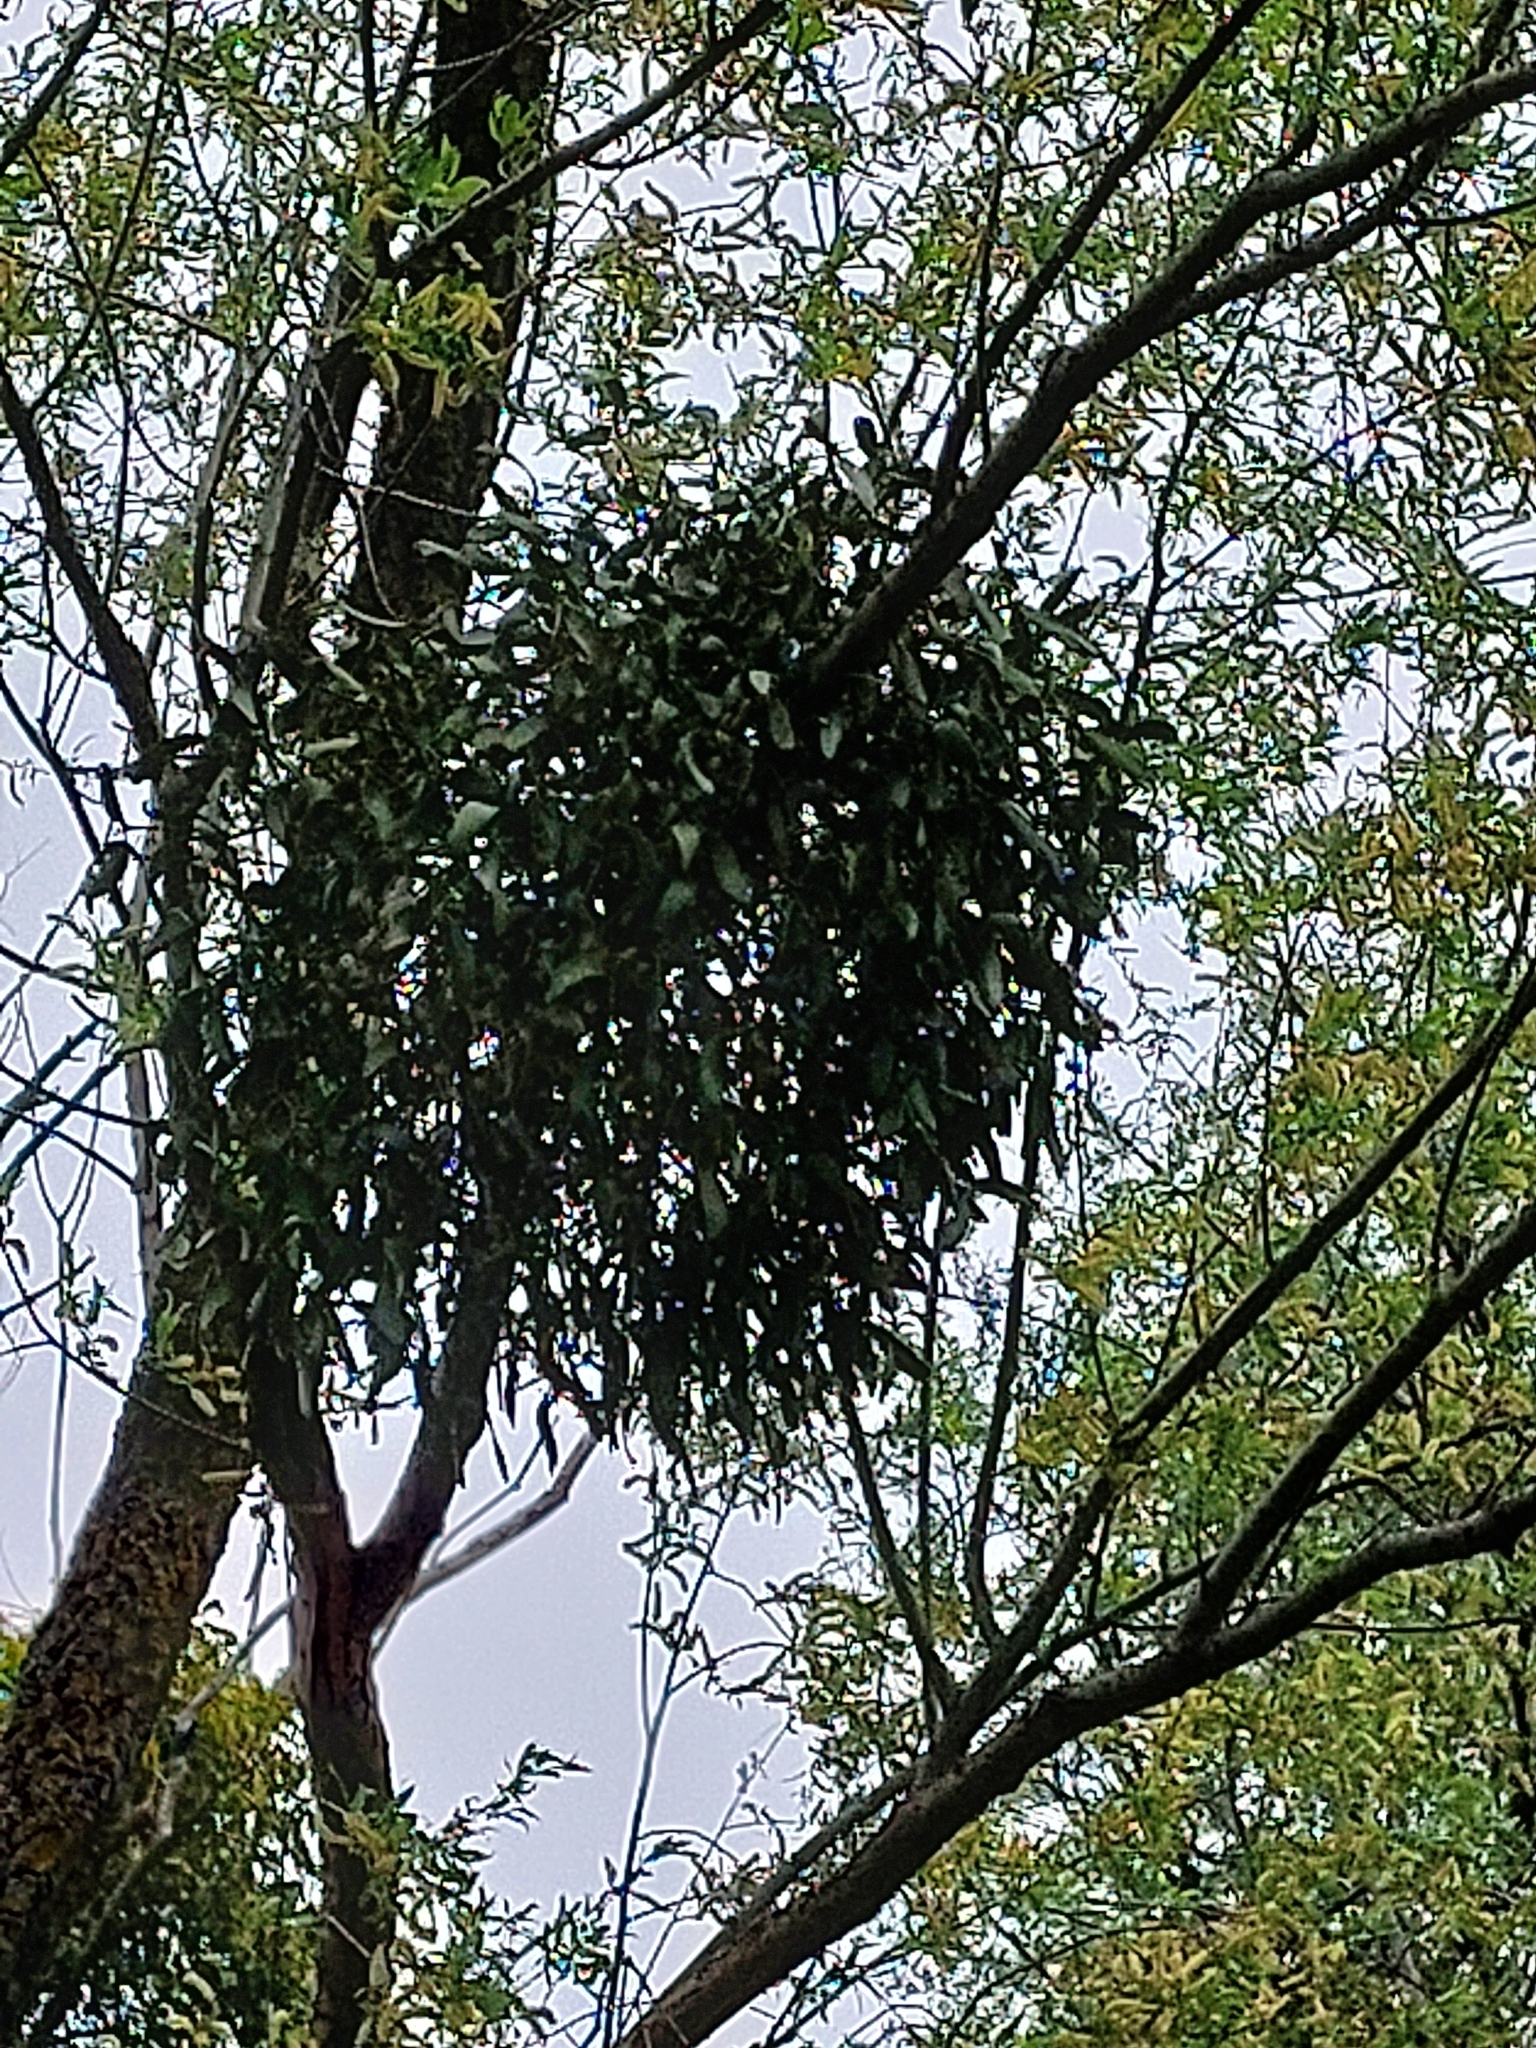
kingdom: Plantae
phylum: Tracheophyta
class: Magnoliopsida
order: Santalales
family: Viscaceae
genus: Viscum
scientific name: Viscum album
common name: Mistletoe
